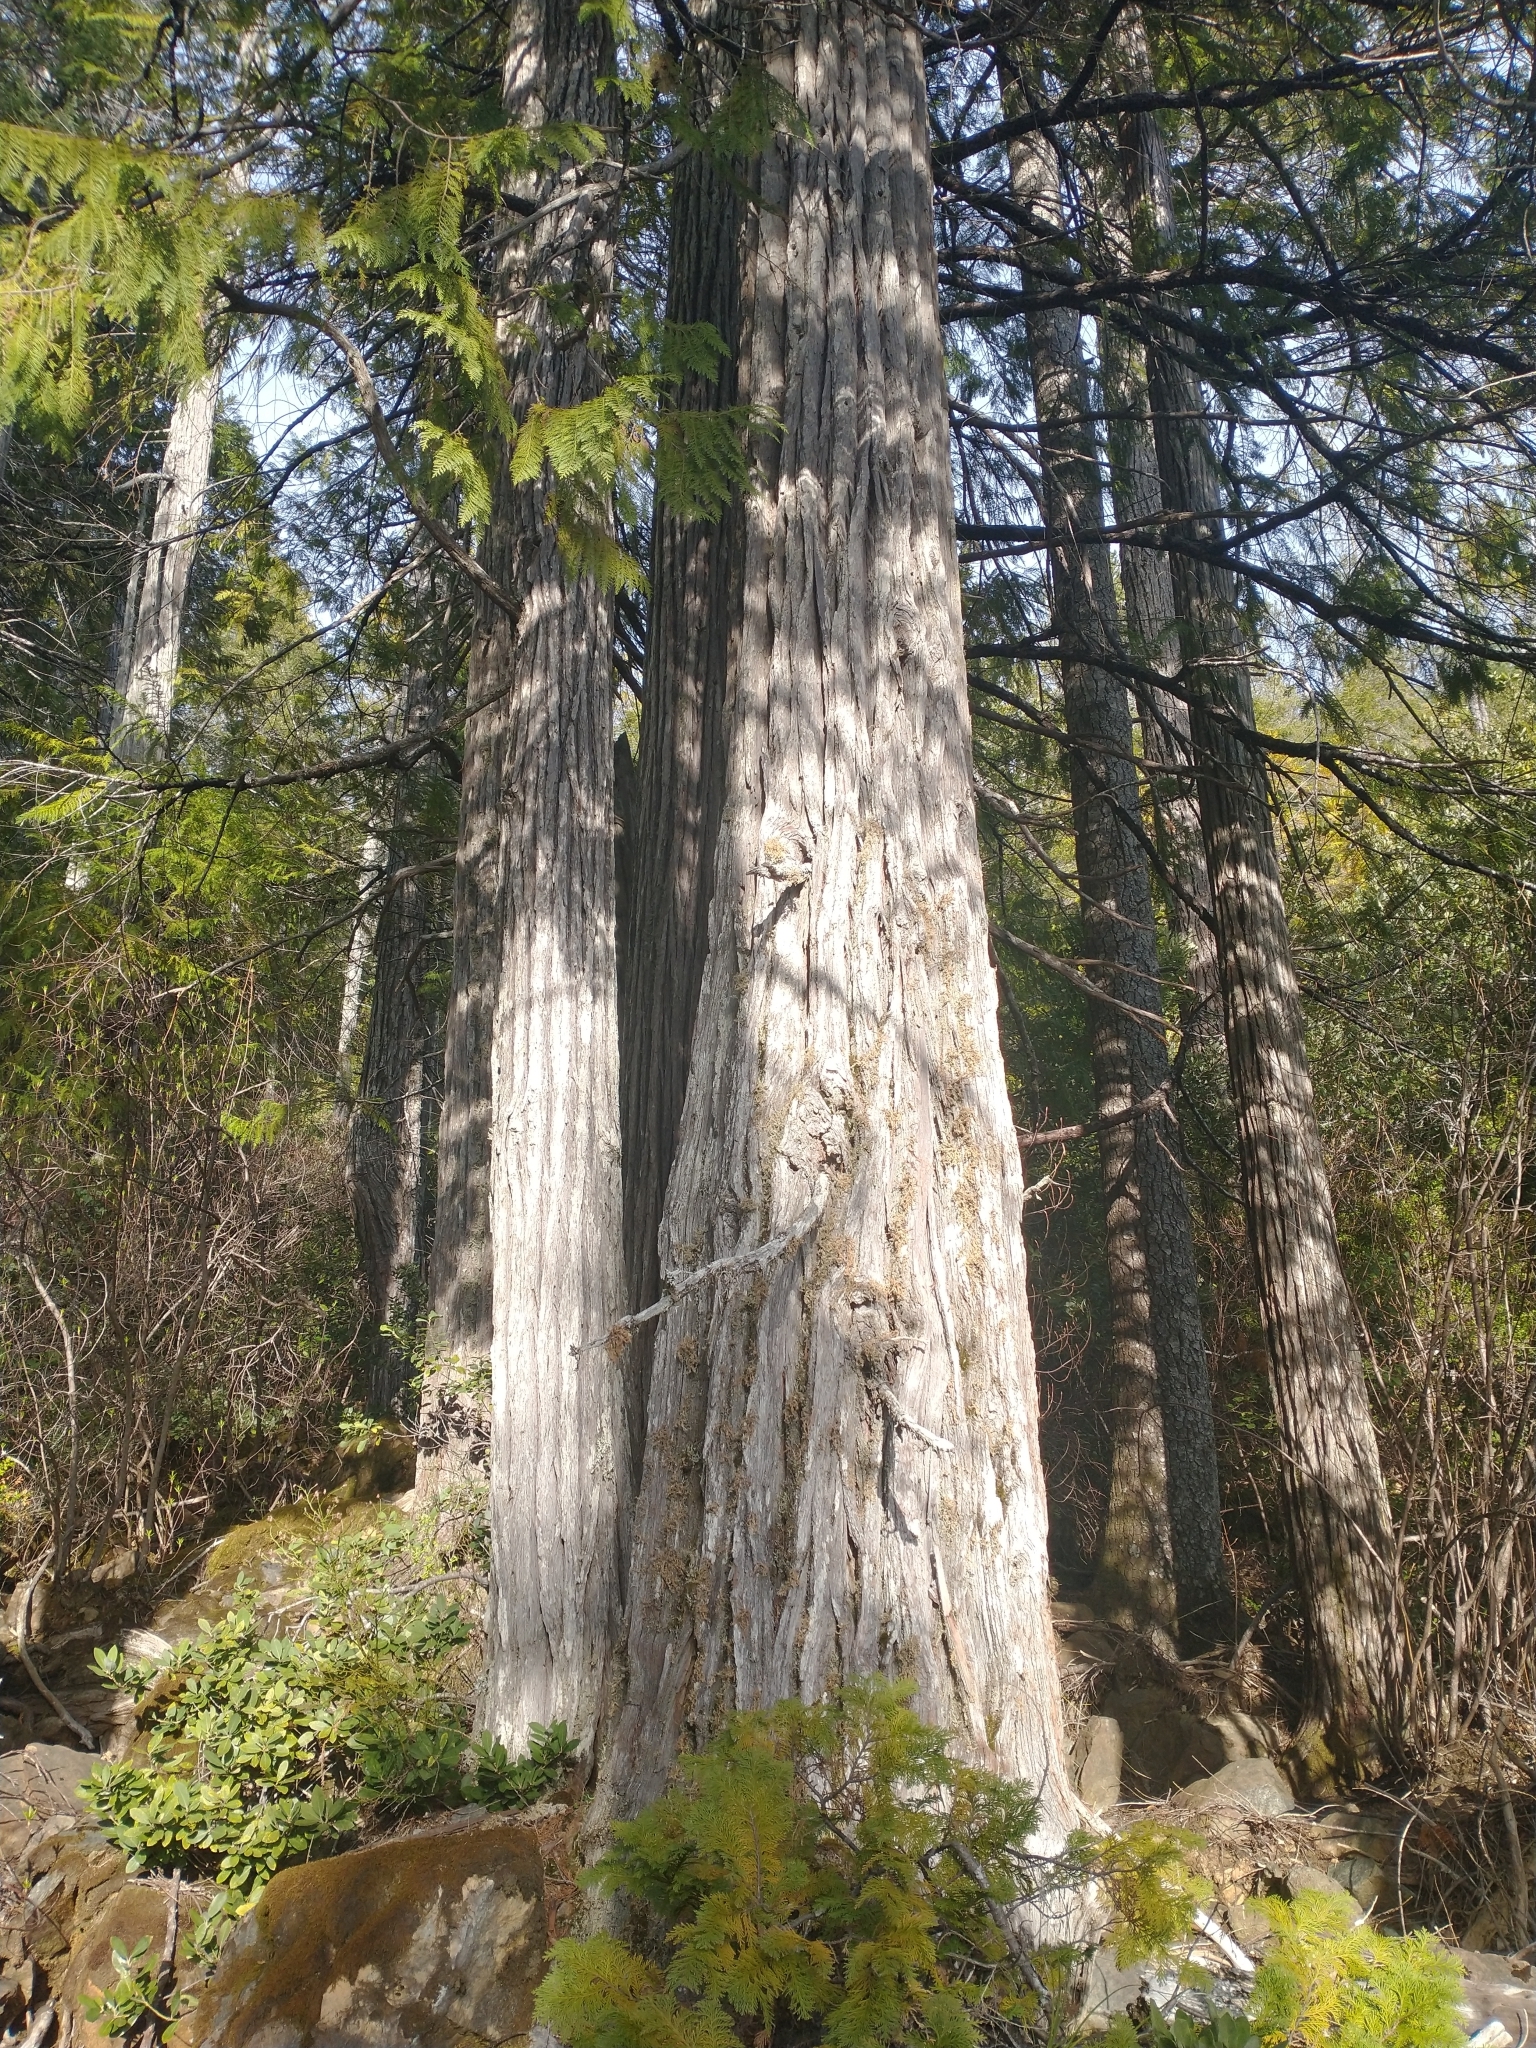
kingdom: Plantae
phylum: Tracheophyta
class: Pinopsida
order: Pinales
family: Cupressaceae
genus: Chamaecyparis
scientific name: Chamaecyparis lawsoniana
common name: Lawson's cypress
